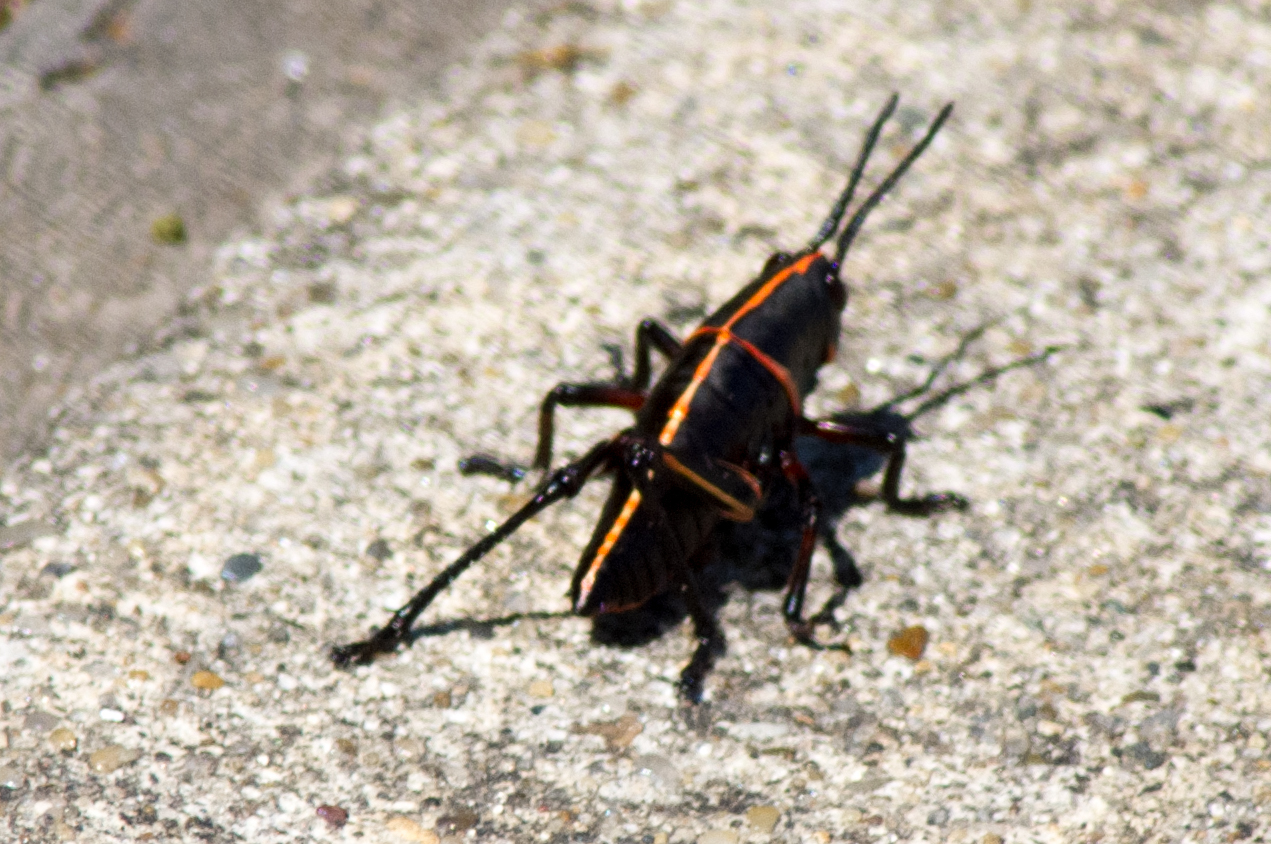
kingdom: Animalia
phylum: Arthropoda
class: Insecta
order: Orthoptera
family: Romaleidae
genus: Romalea
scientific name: Romalea microptera
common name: Eastern lubber grasshopper
